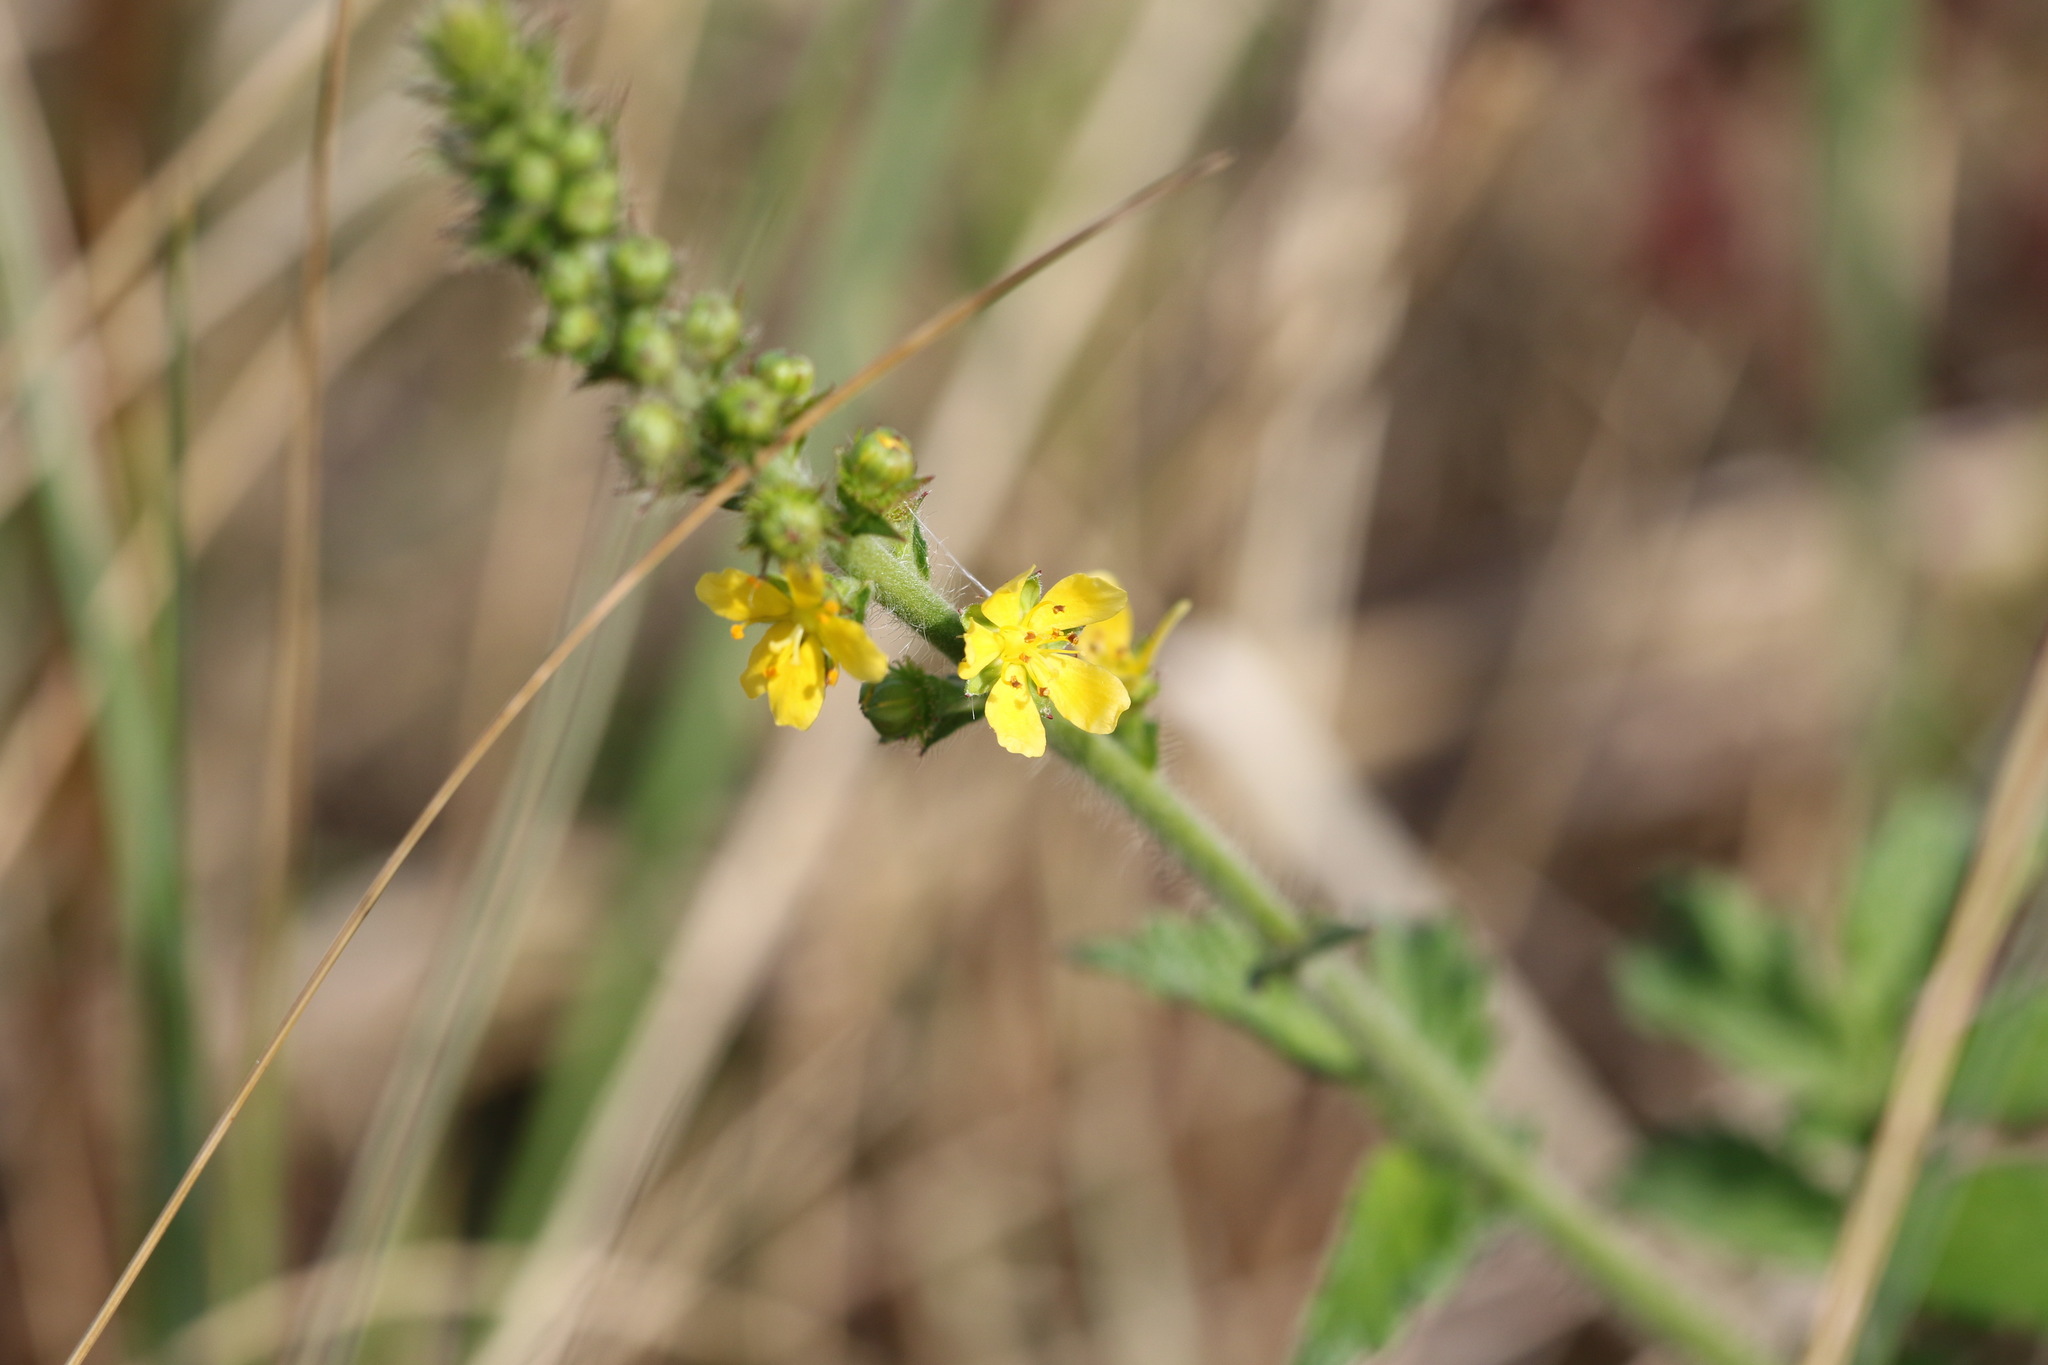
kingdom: Plantae
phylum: Tracheophyta
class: Magnoliopsida
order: Rosales
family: Rosaceae
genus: Agrimonia
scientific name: Agrimonia eupatoria
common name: Agrimony
